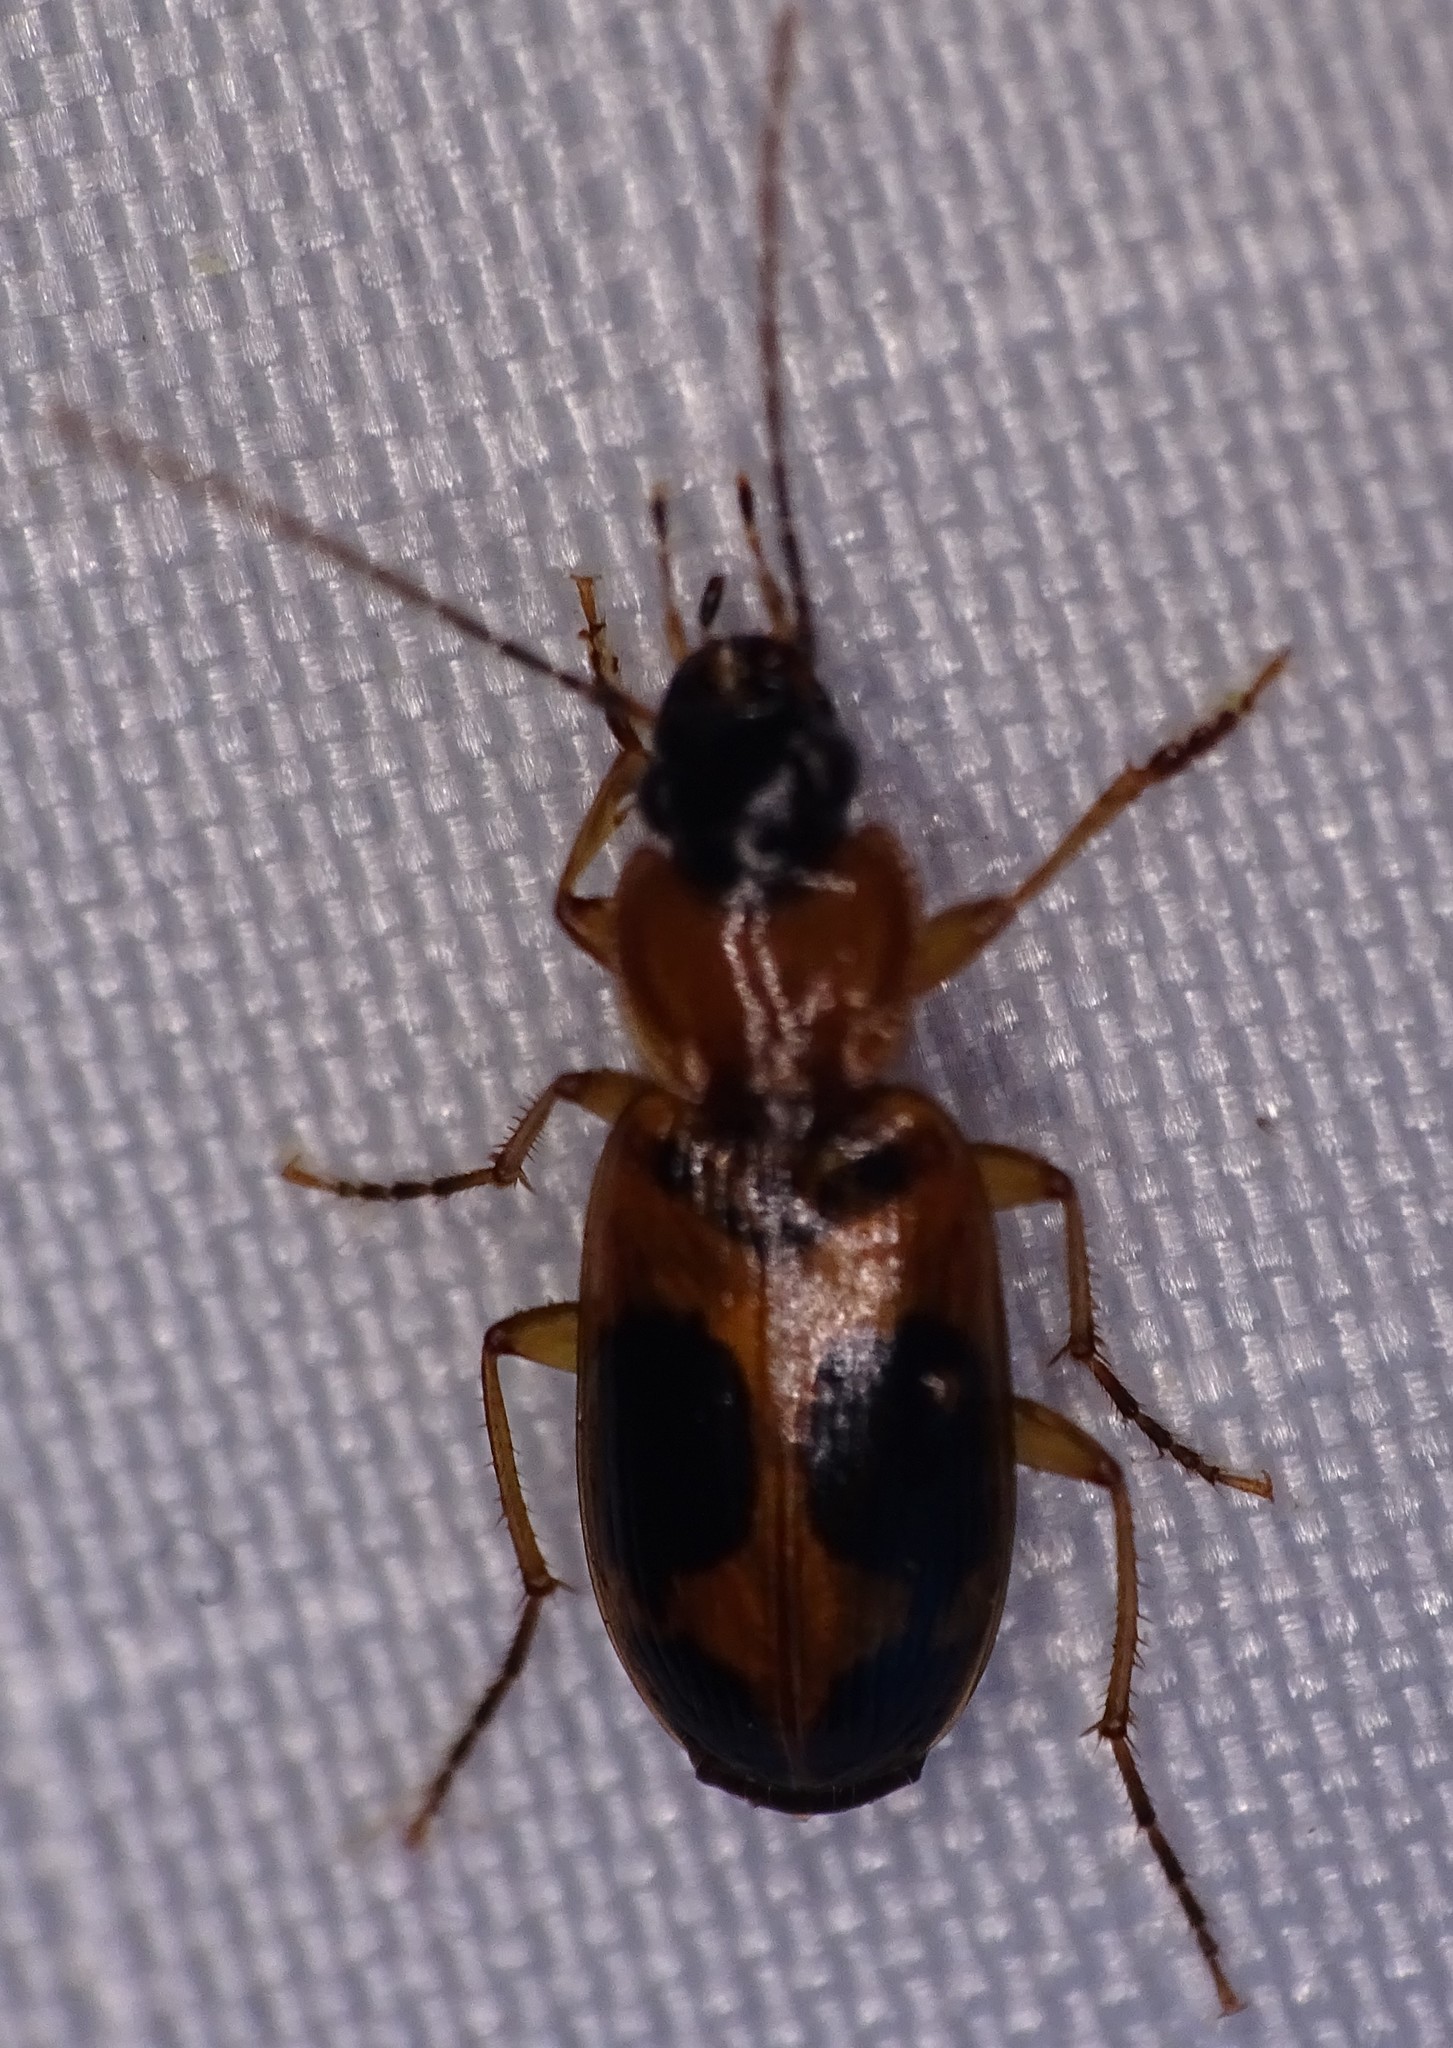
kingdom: Animalia
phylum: Arthropoda
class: Insecta
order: Coleoptera
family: Carabidae
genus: Badister
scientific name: Badister neopulchellus
